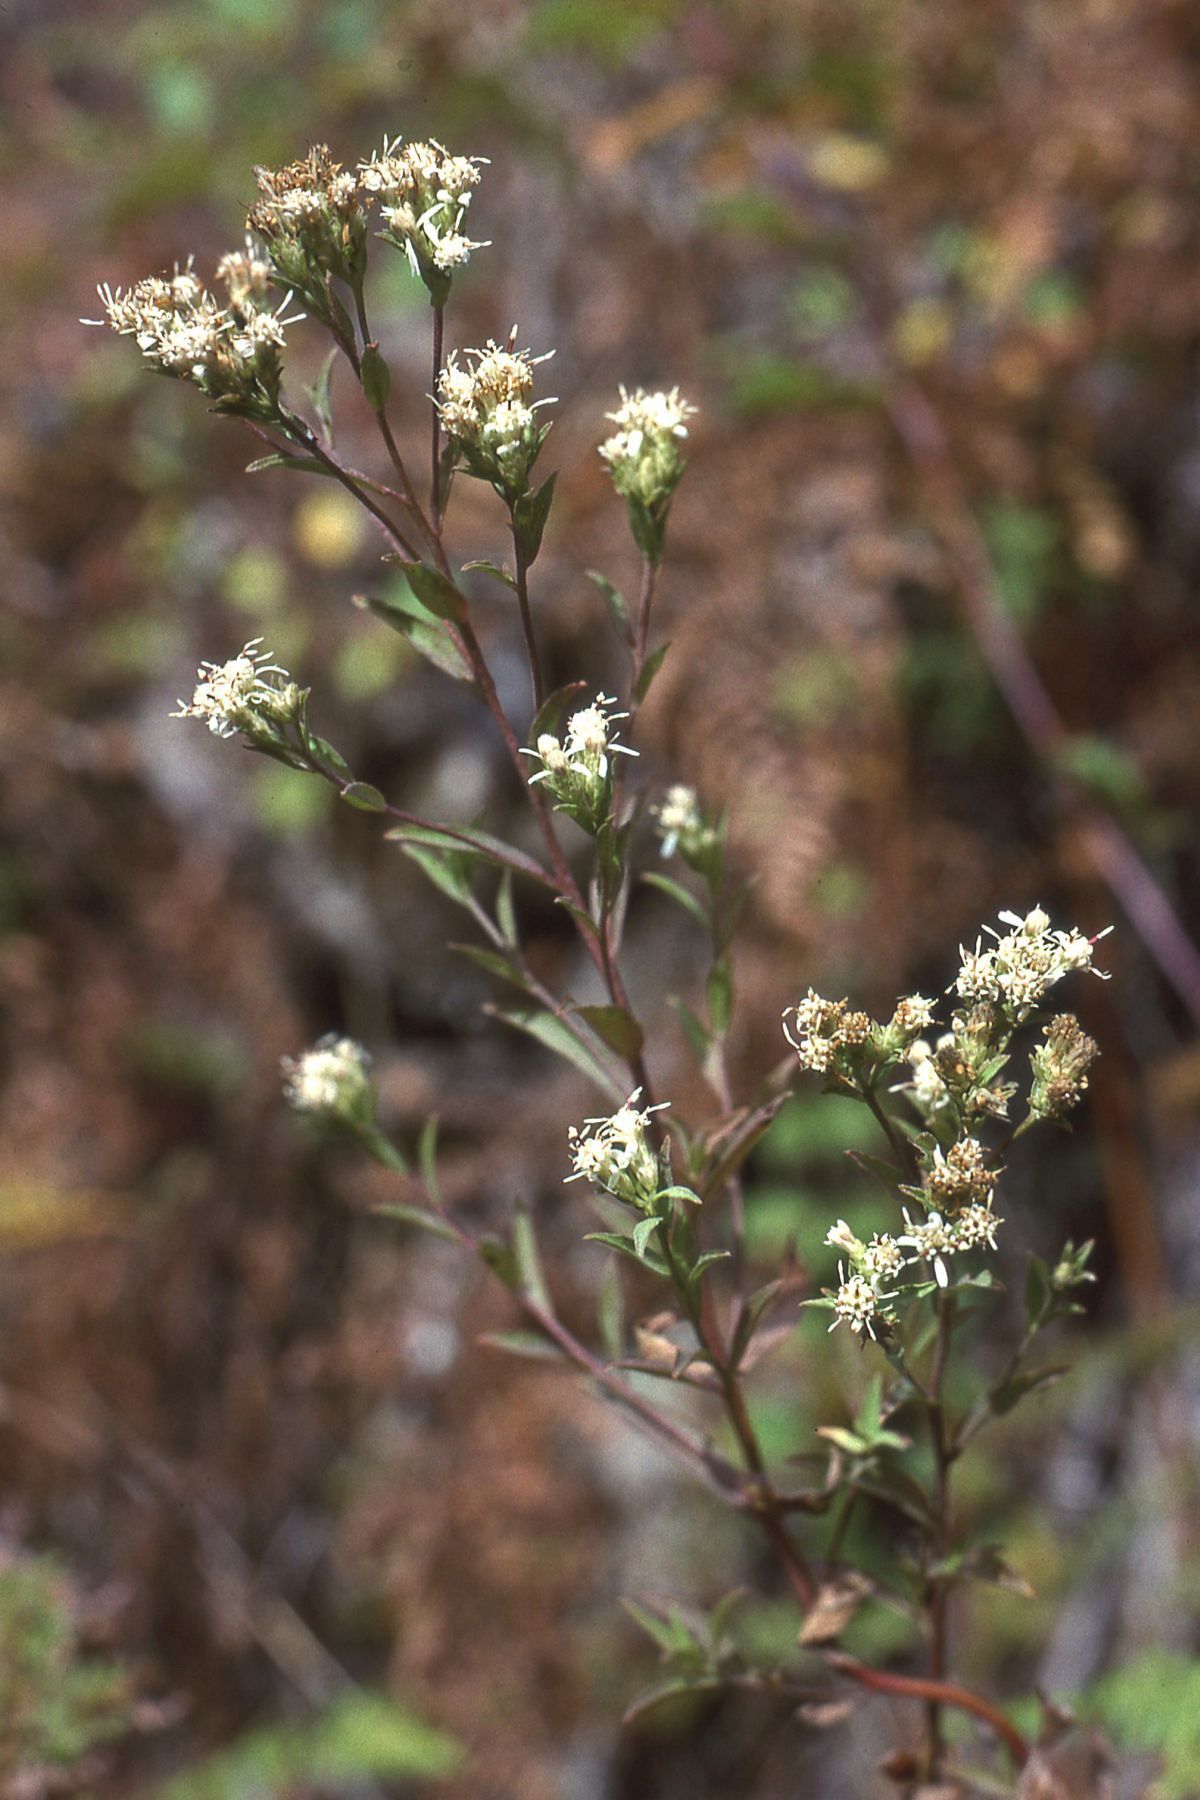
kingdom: Plantae
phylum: Tracheophyta
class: Magnoliopsida
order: Asterales
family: Asteraceae
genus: Sericocarpus
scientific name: Sericocarpus oregonensis
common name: Oregon white-top aster
